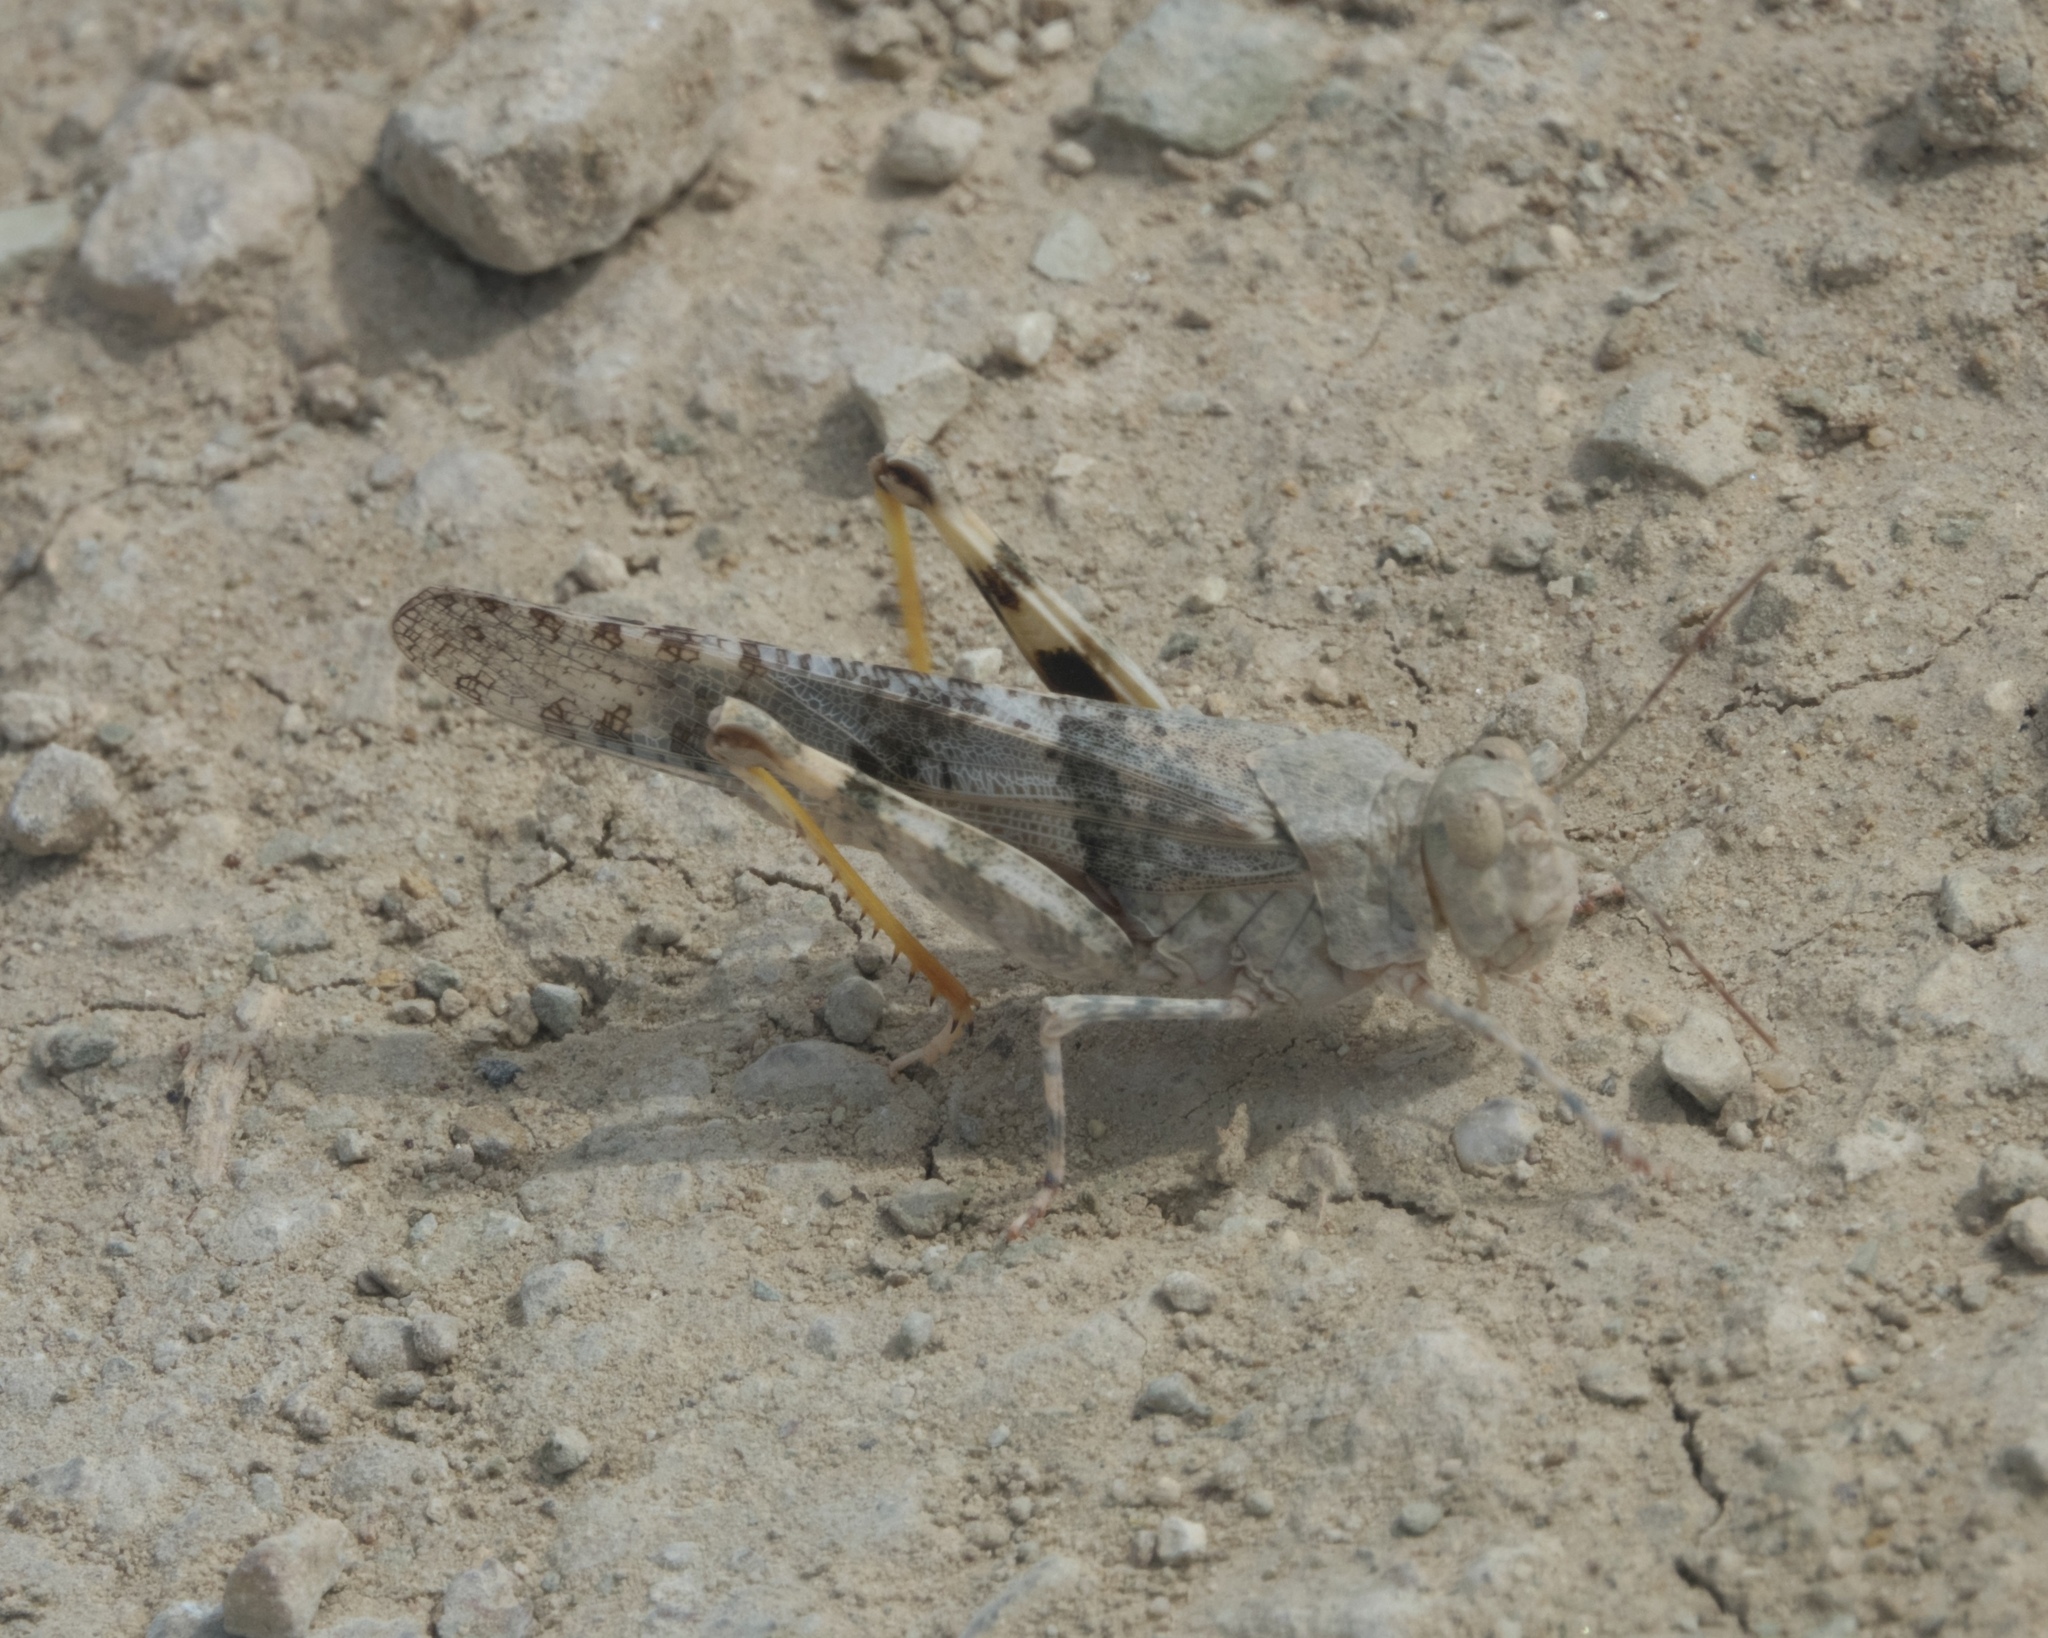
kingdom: Animalia
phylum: Arthropoda
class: Insecta
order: Orthoptera
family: Acrididae
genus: Trimerotropis
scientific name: Trimerotropis pallidipennis
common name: Pallid-winged grasshopper
